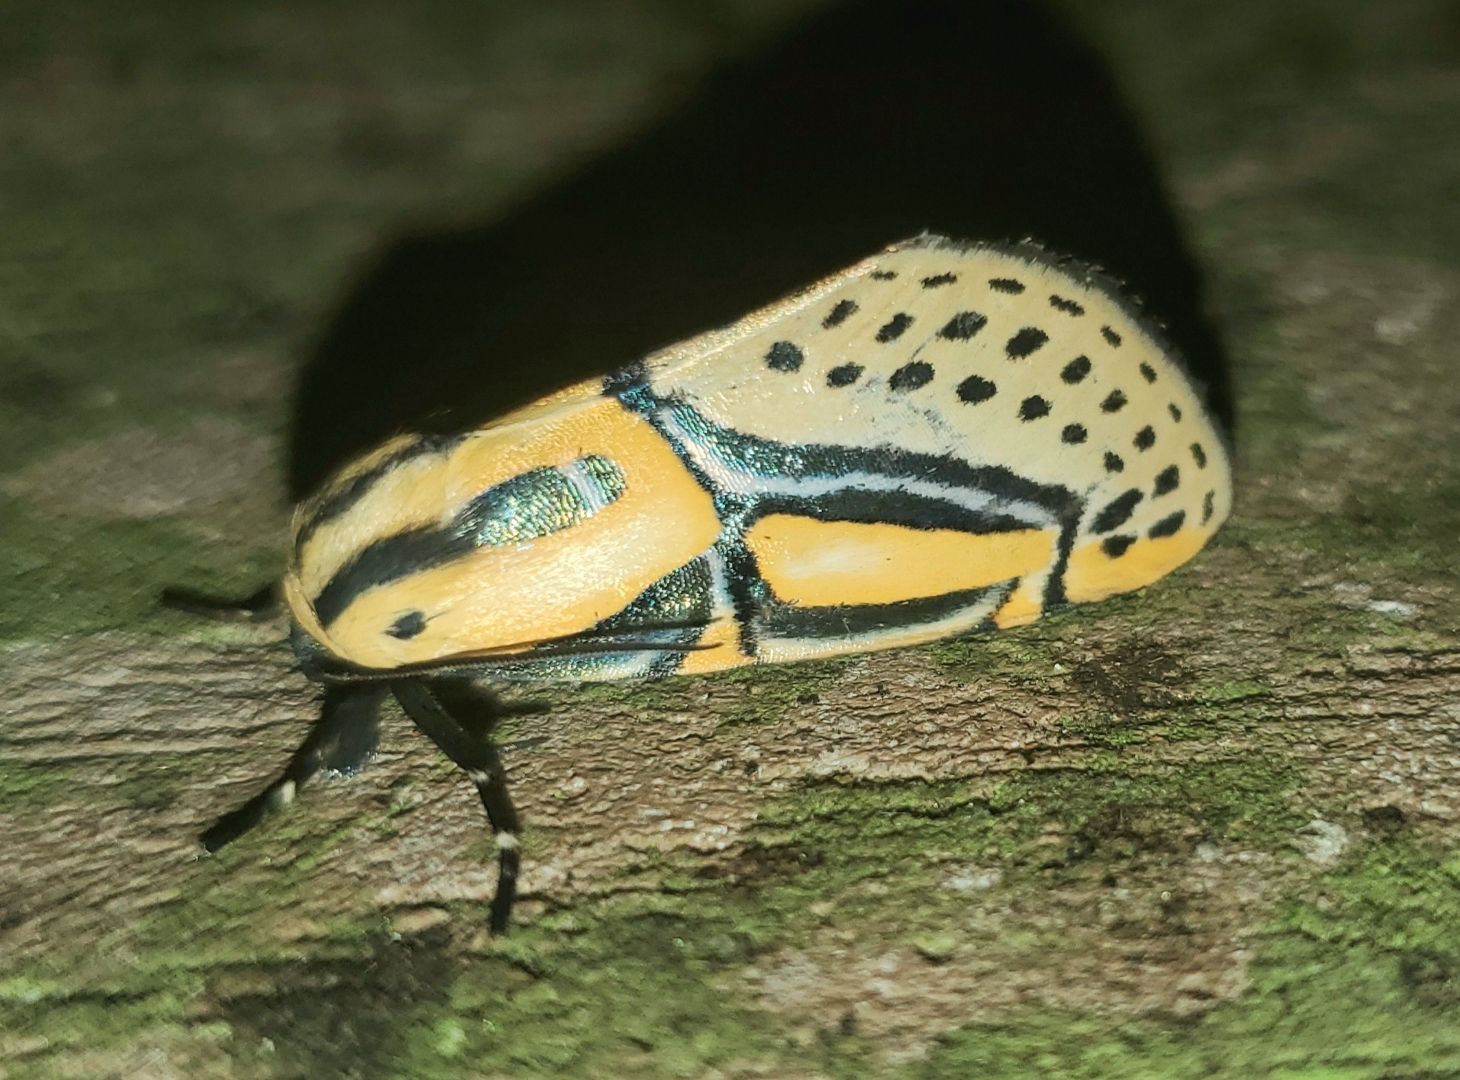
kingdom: Animalia
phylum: Arthropoda
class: Insecta
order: Lepidoptera
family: Erebidae
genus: Diphthera
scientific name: Diphthera festiva
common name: Hieroglyphic moth
